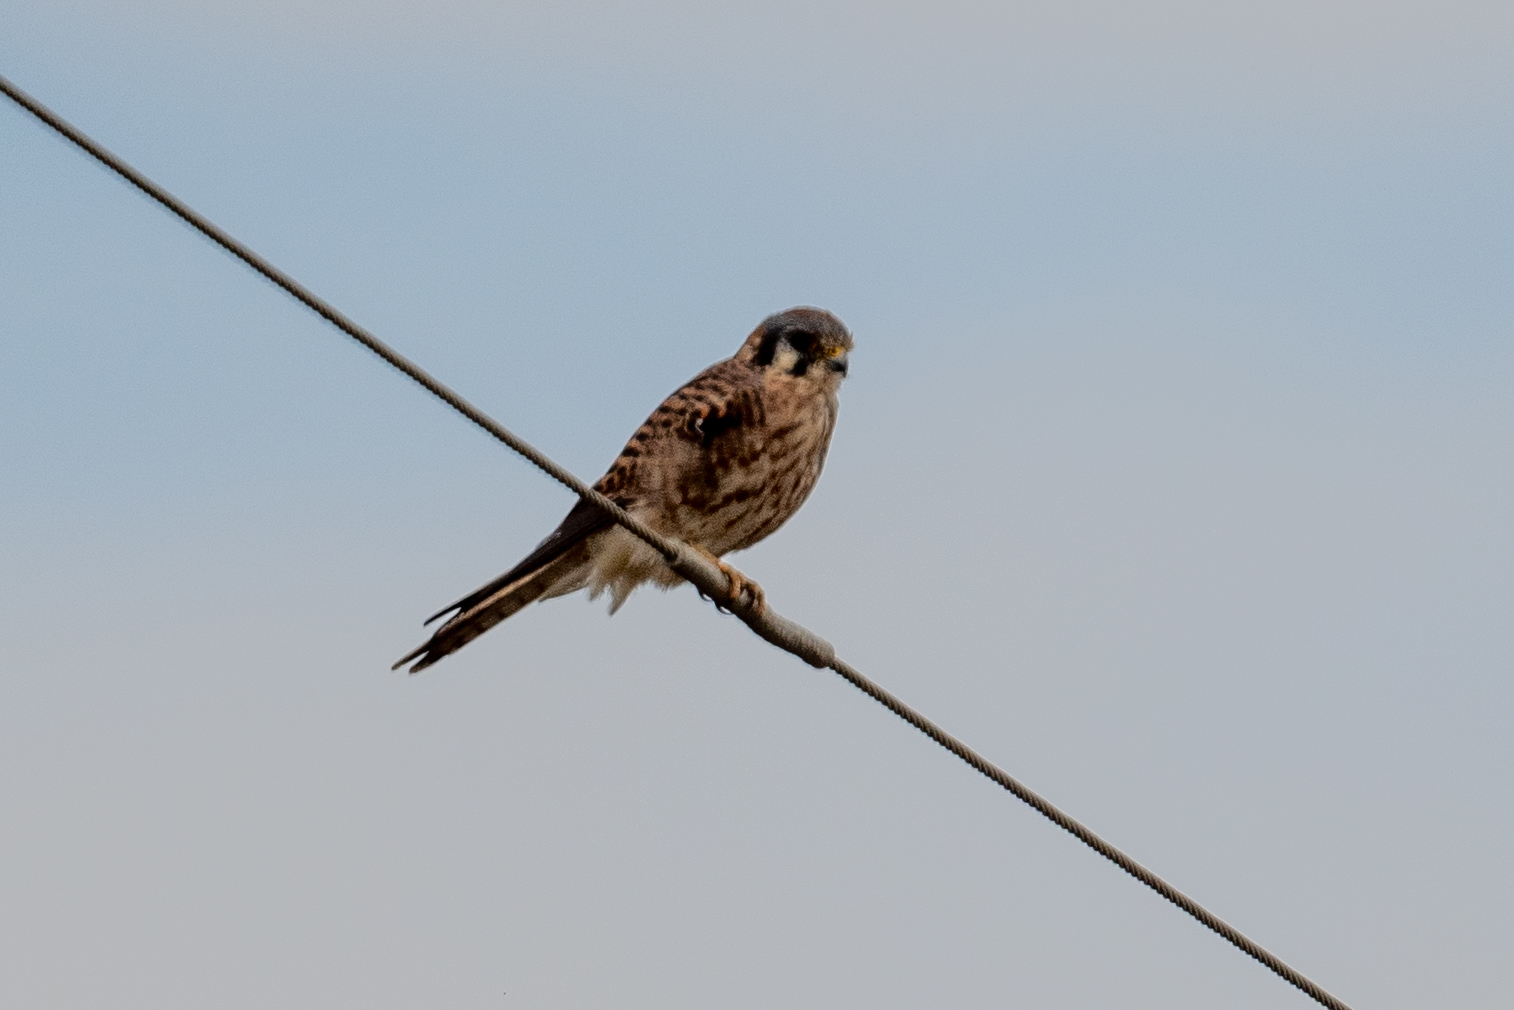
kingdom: Animalia
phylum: Chordata
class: Aves
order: Falconiformes
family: Falconidae
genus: Falco
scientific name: Falco sparverius
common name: American kestrel
